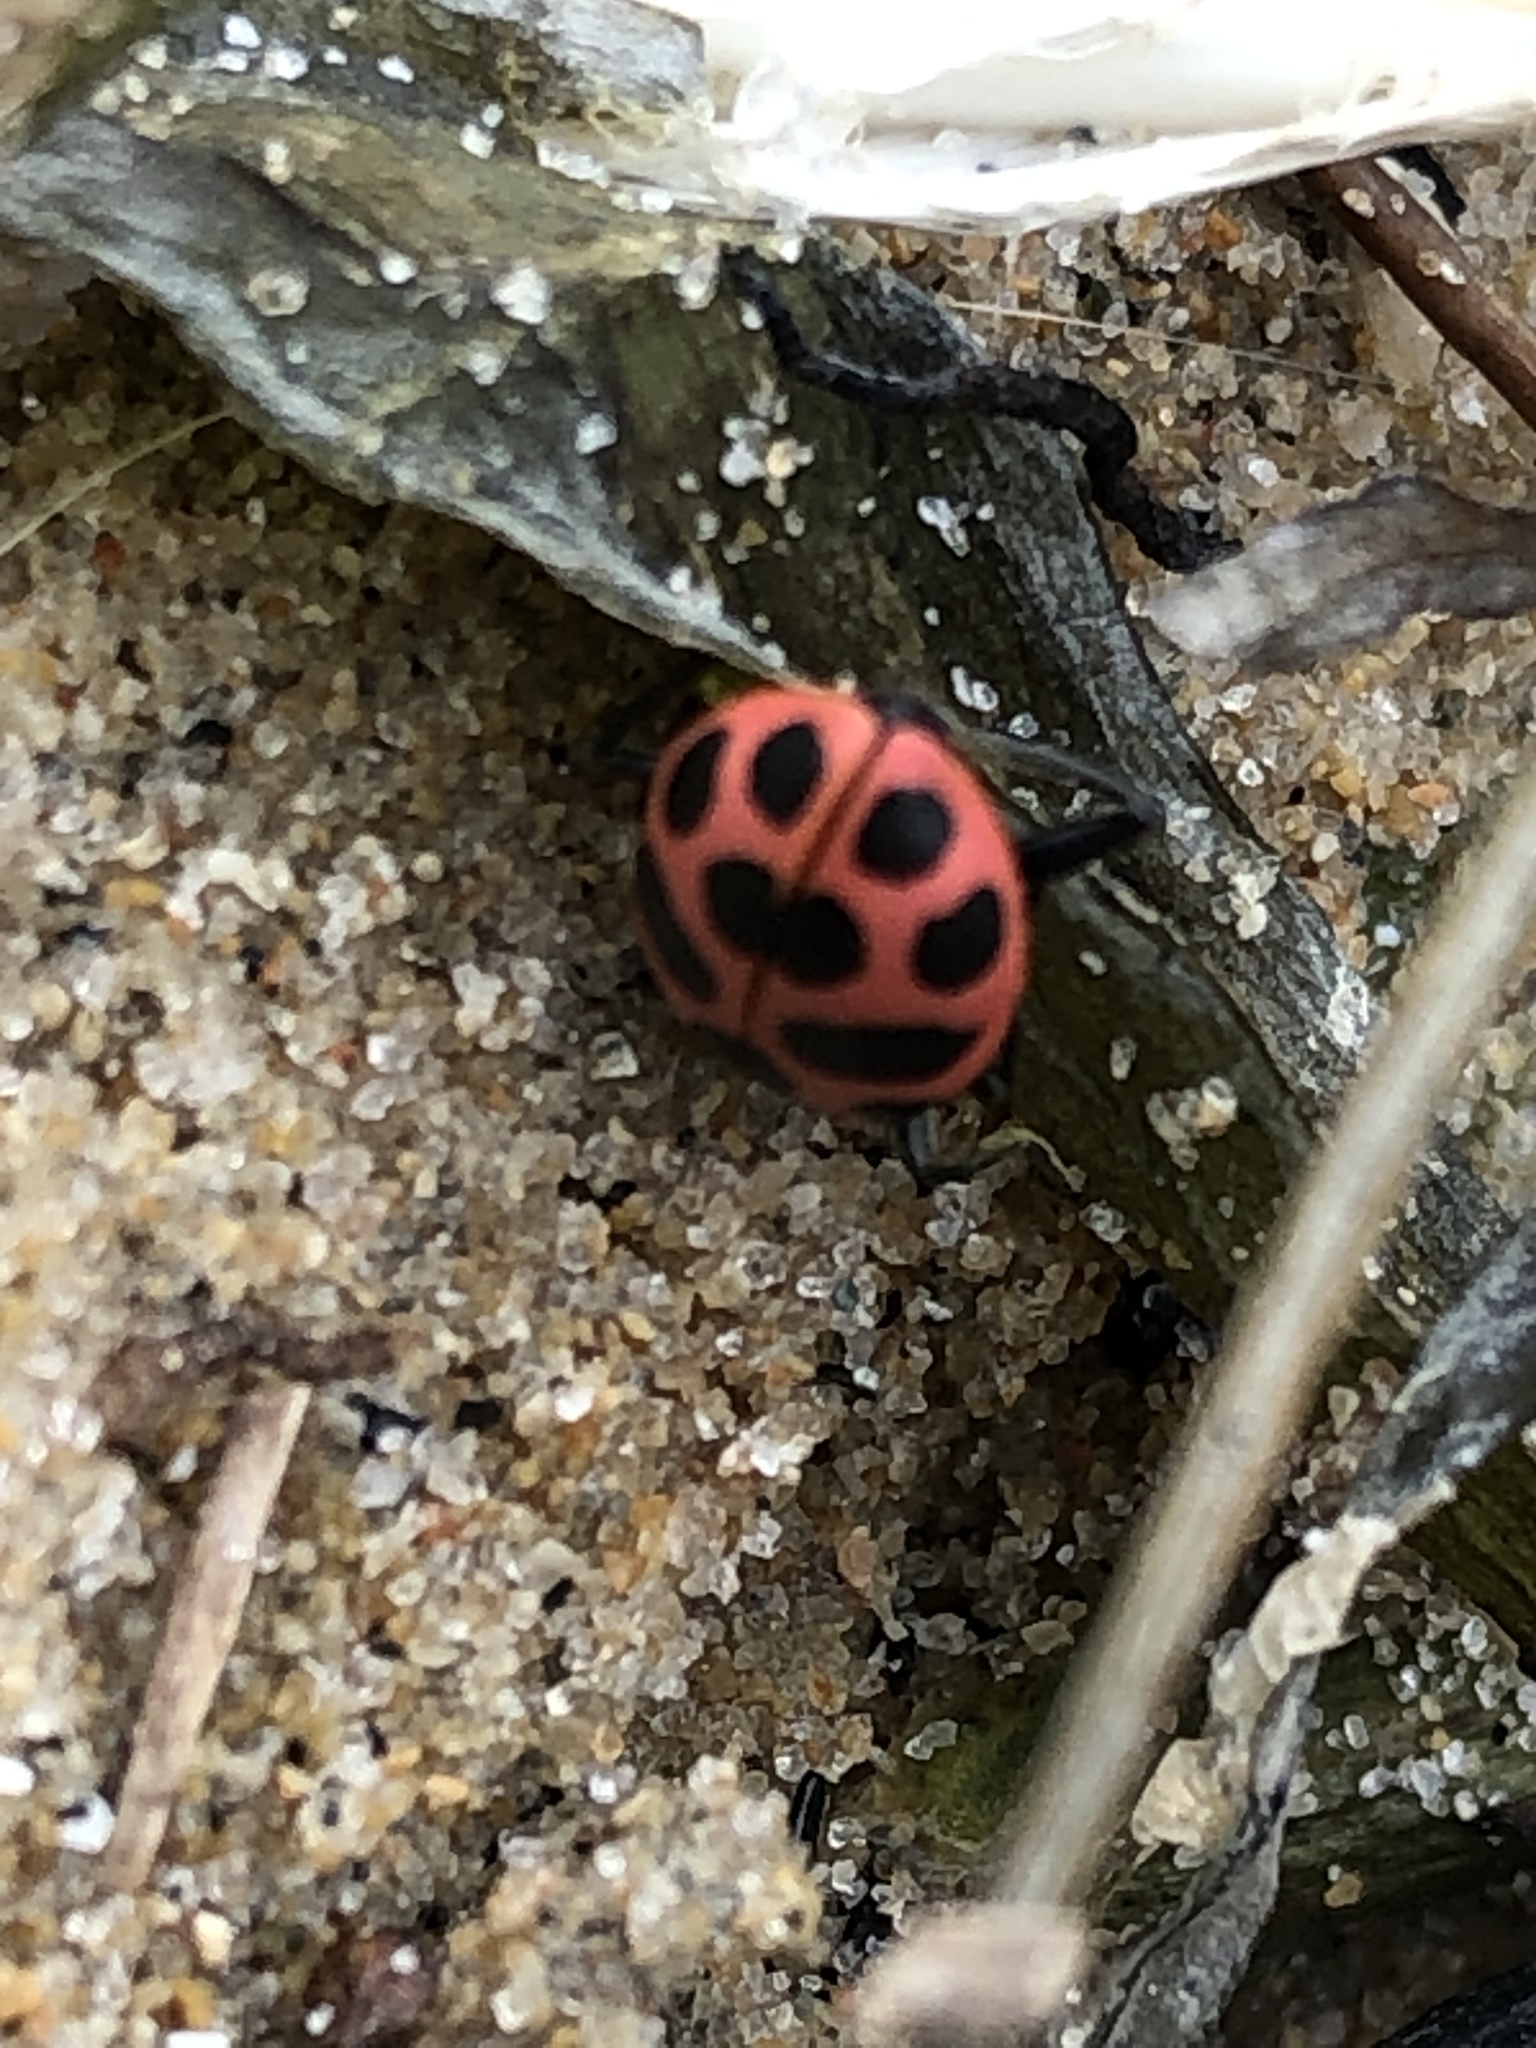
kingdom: Animalia
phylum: Arthropoda
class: Insecta
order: Coleoptera
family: Coccinellidae
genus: Coleomegilla
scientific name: Coleomegilla maculata
